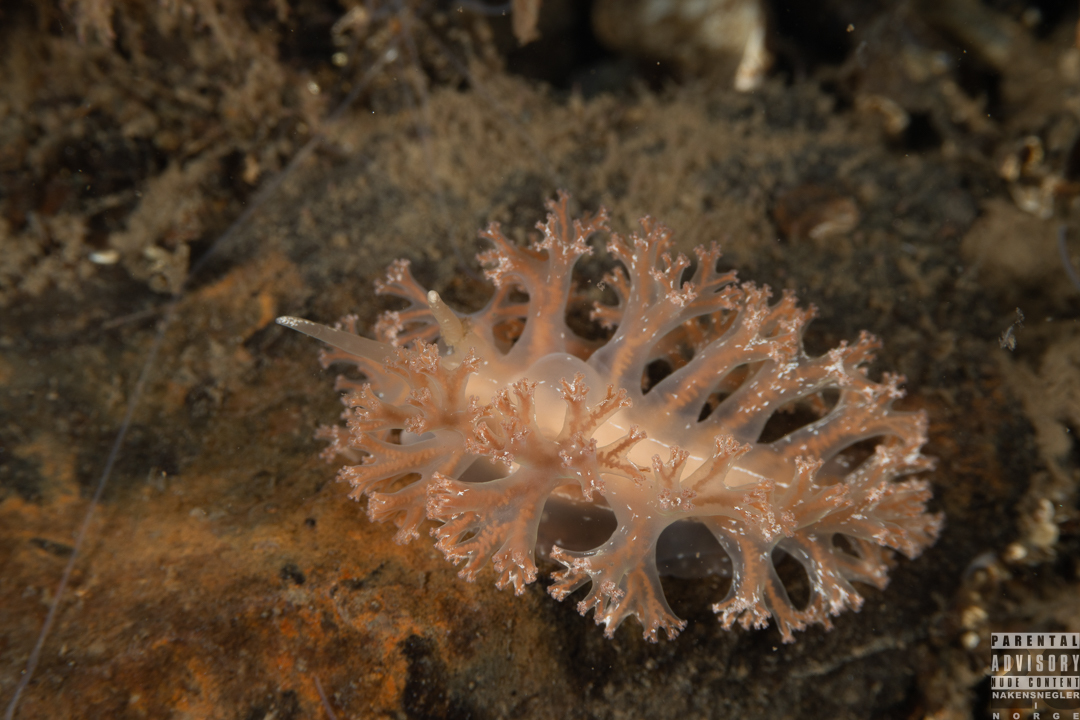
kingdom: Animalia
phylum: Mollusca
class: Gastropoda
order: Nudibranchia
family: Heroidae
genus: Hero
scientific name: Hero formosa
